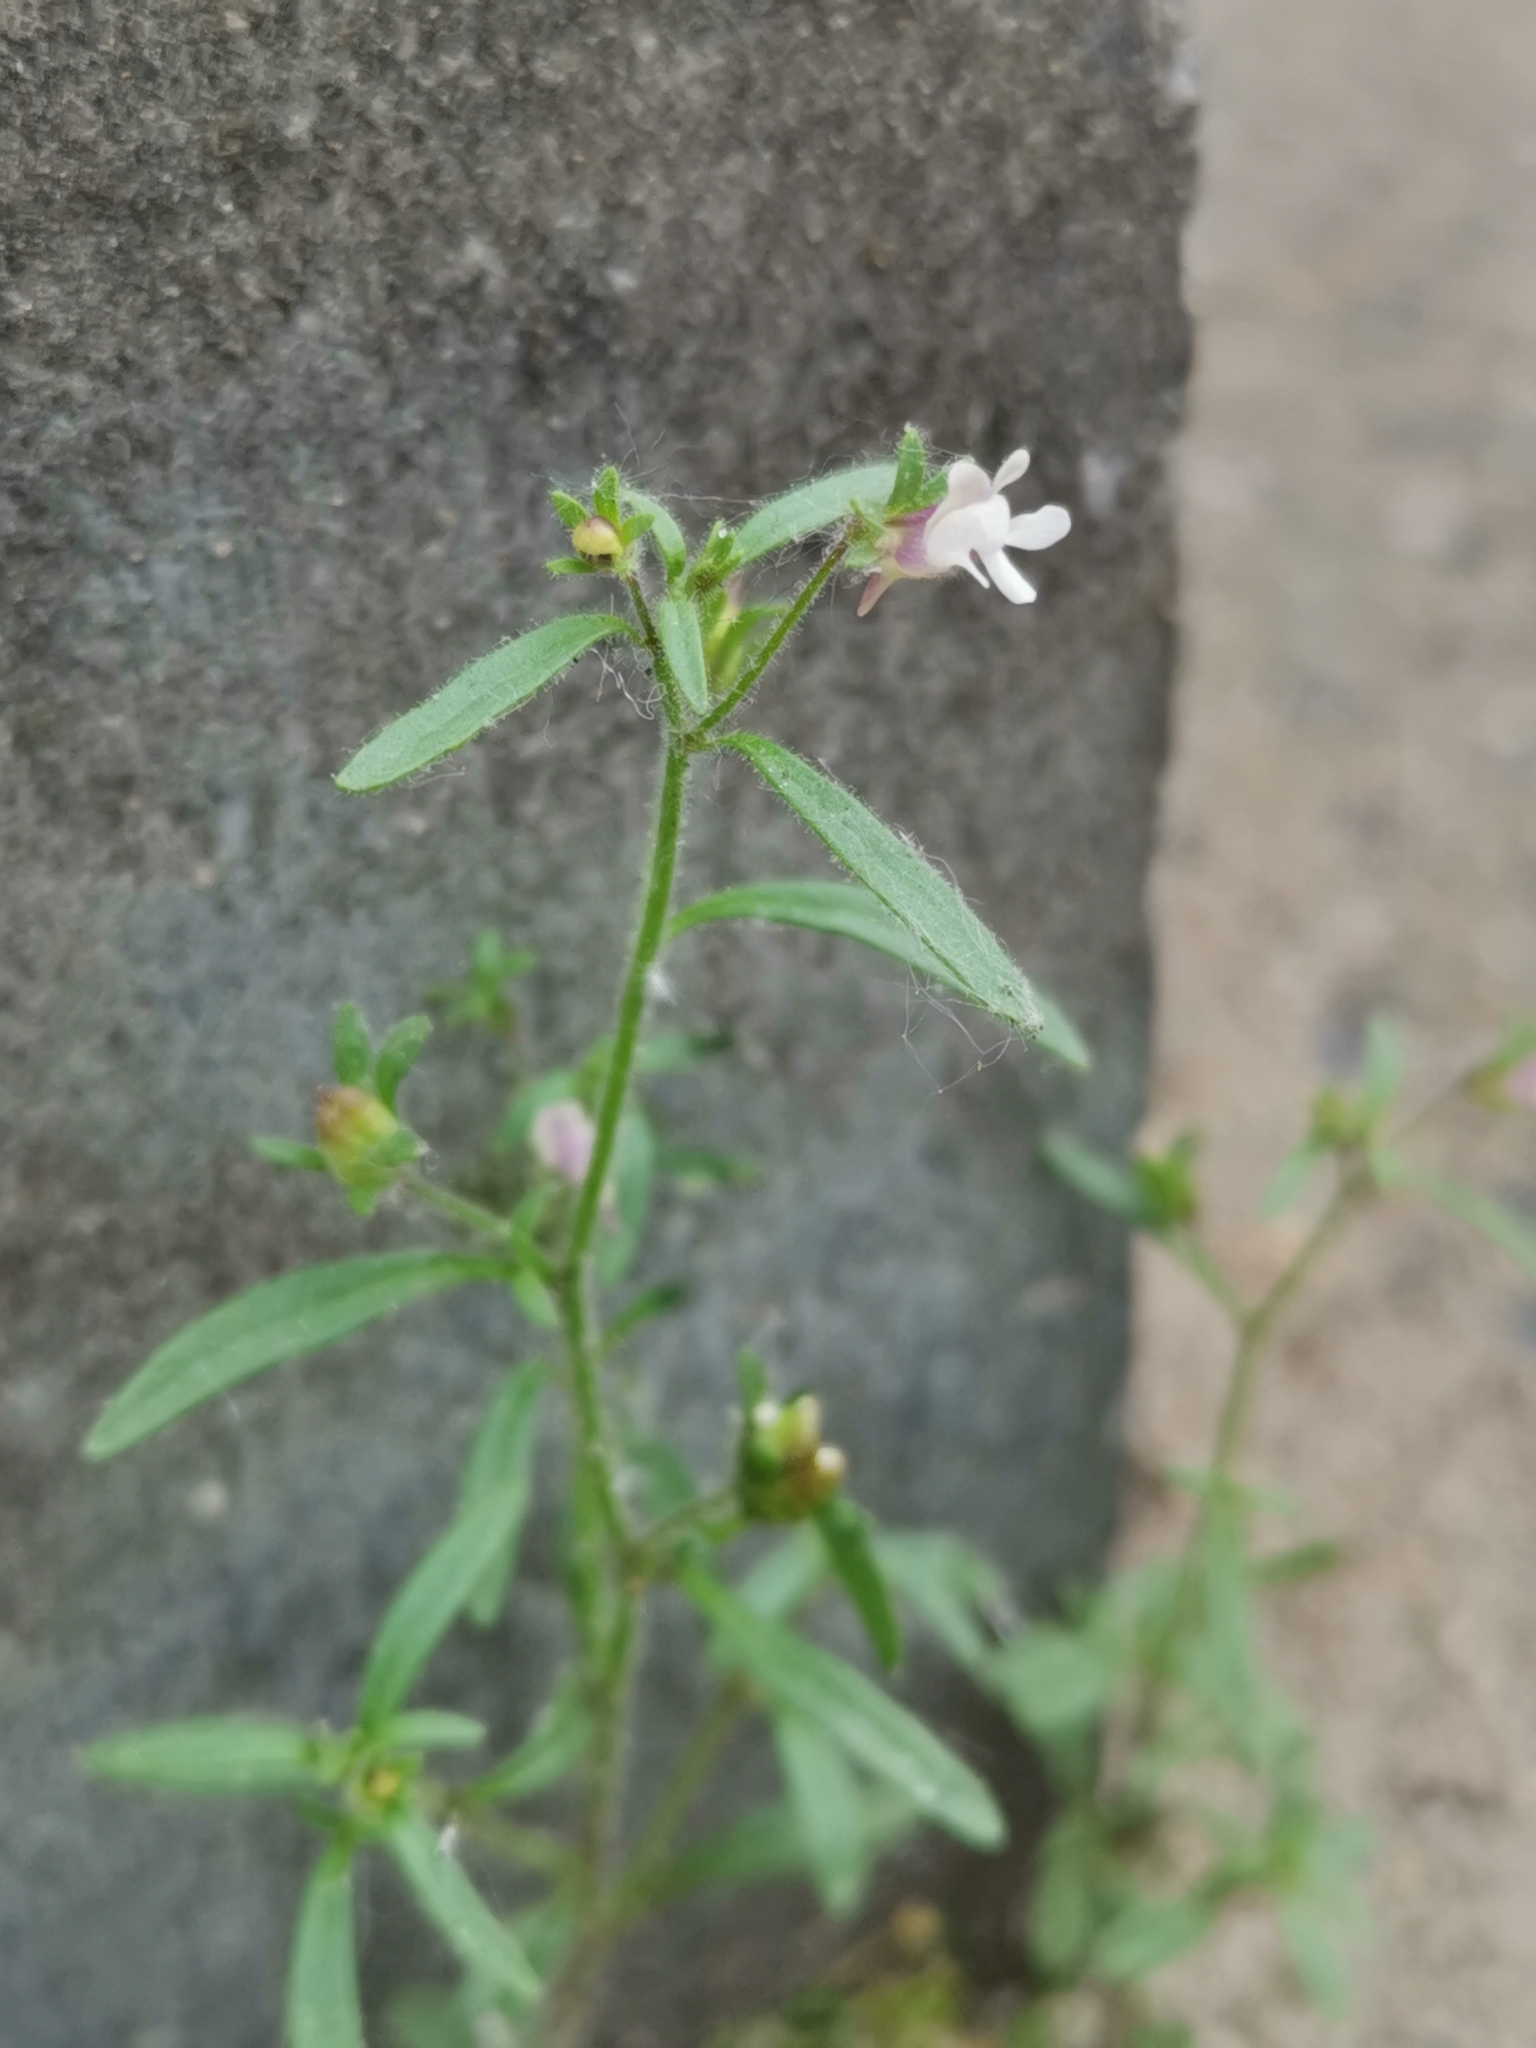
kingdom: Plantae
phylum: Tracheophyta
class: Magnoliopsida
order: Lamiales
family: Plantaginaceae
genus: Chaenorhinum
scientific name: Chaenorhinum minus
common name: Dwarf snapdragon
